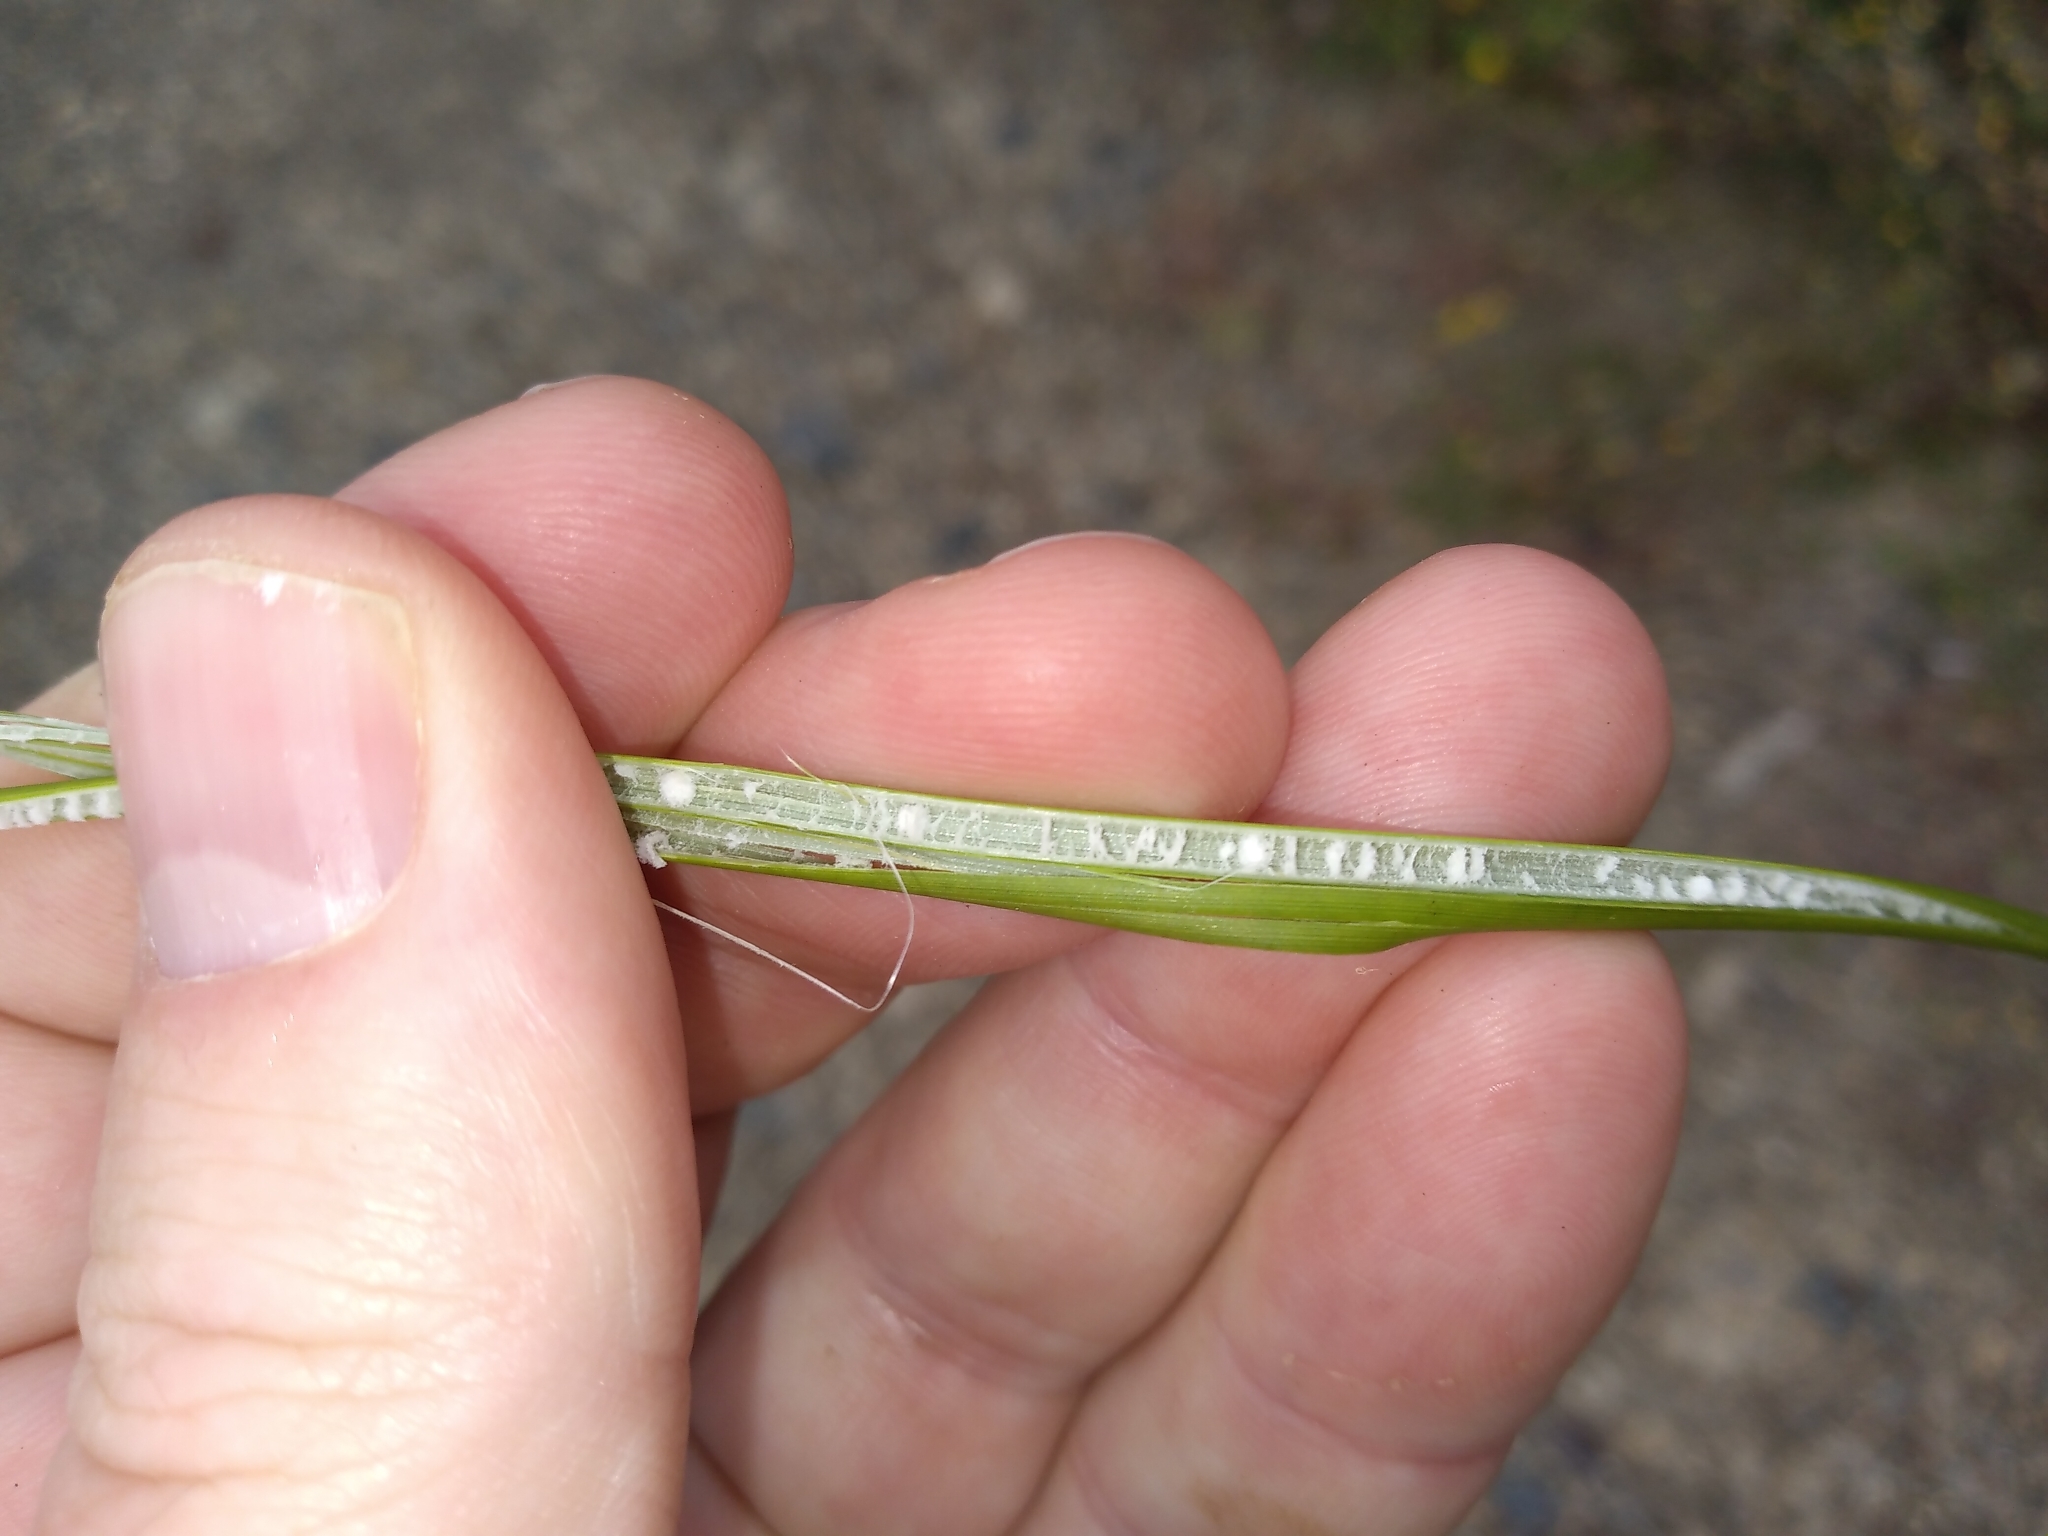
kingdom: Plantae
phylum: Tracheophyta
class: Liliopsida
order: Poales
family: Juncaceae
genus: Juncus
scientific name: Juncus australis
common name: Austral rush
